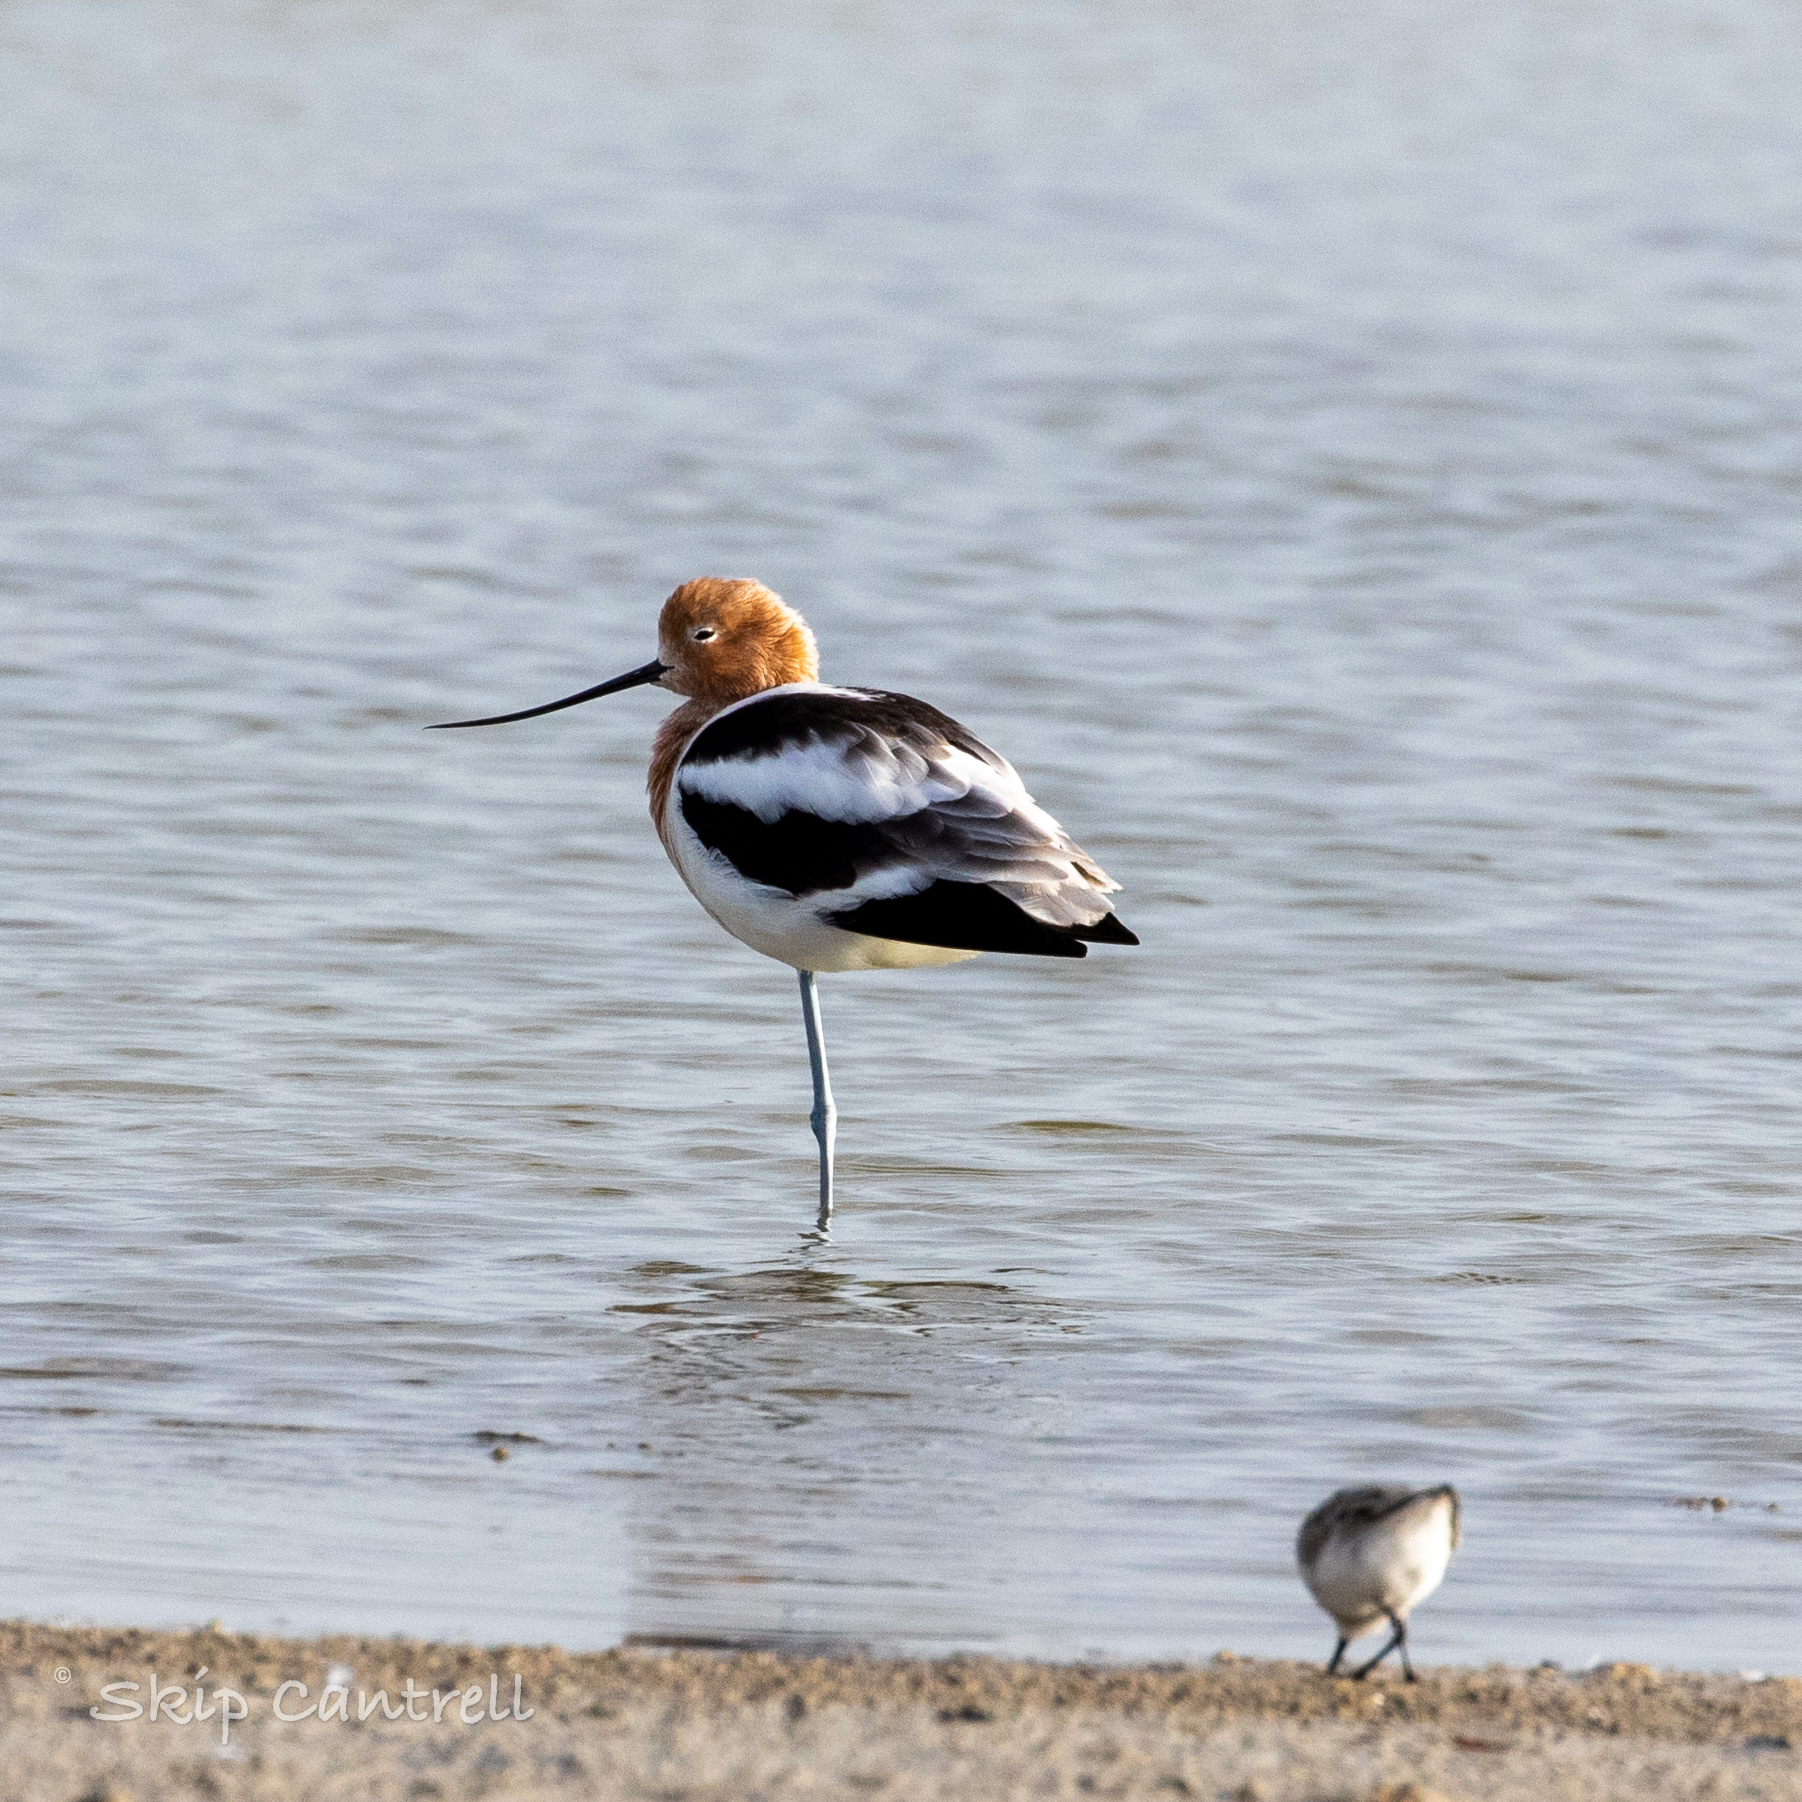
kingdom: Animalia
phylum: Chordata
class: Aves
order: Charadriiformes
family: Recurvirostridae
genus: Recurvirostra
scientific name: Recurvirostra americana
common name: American avocet
